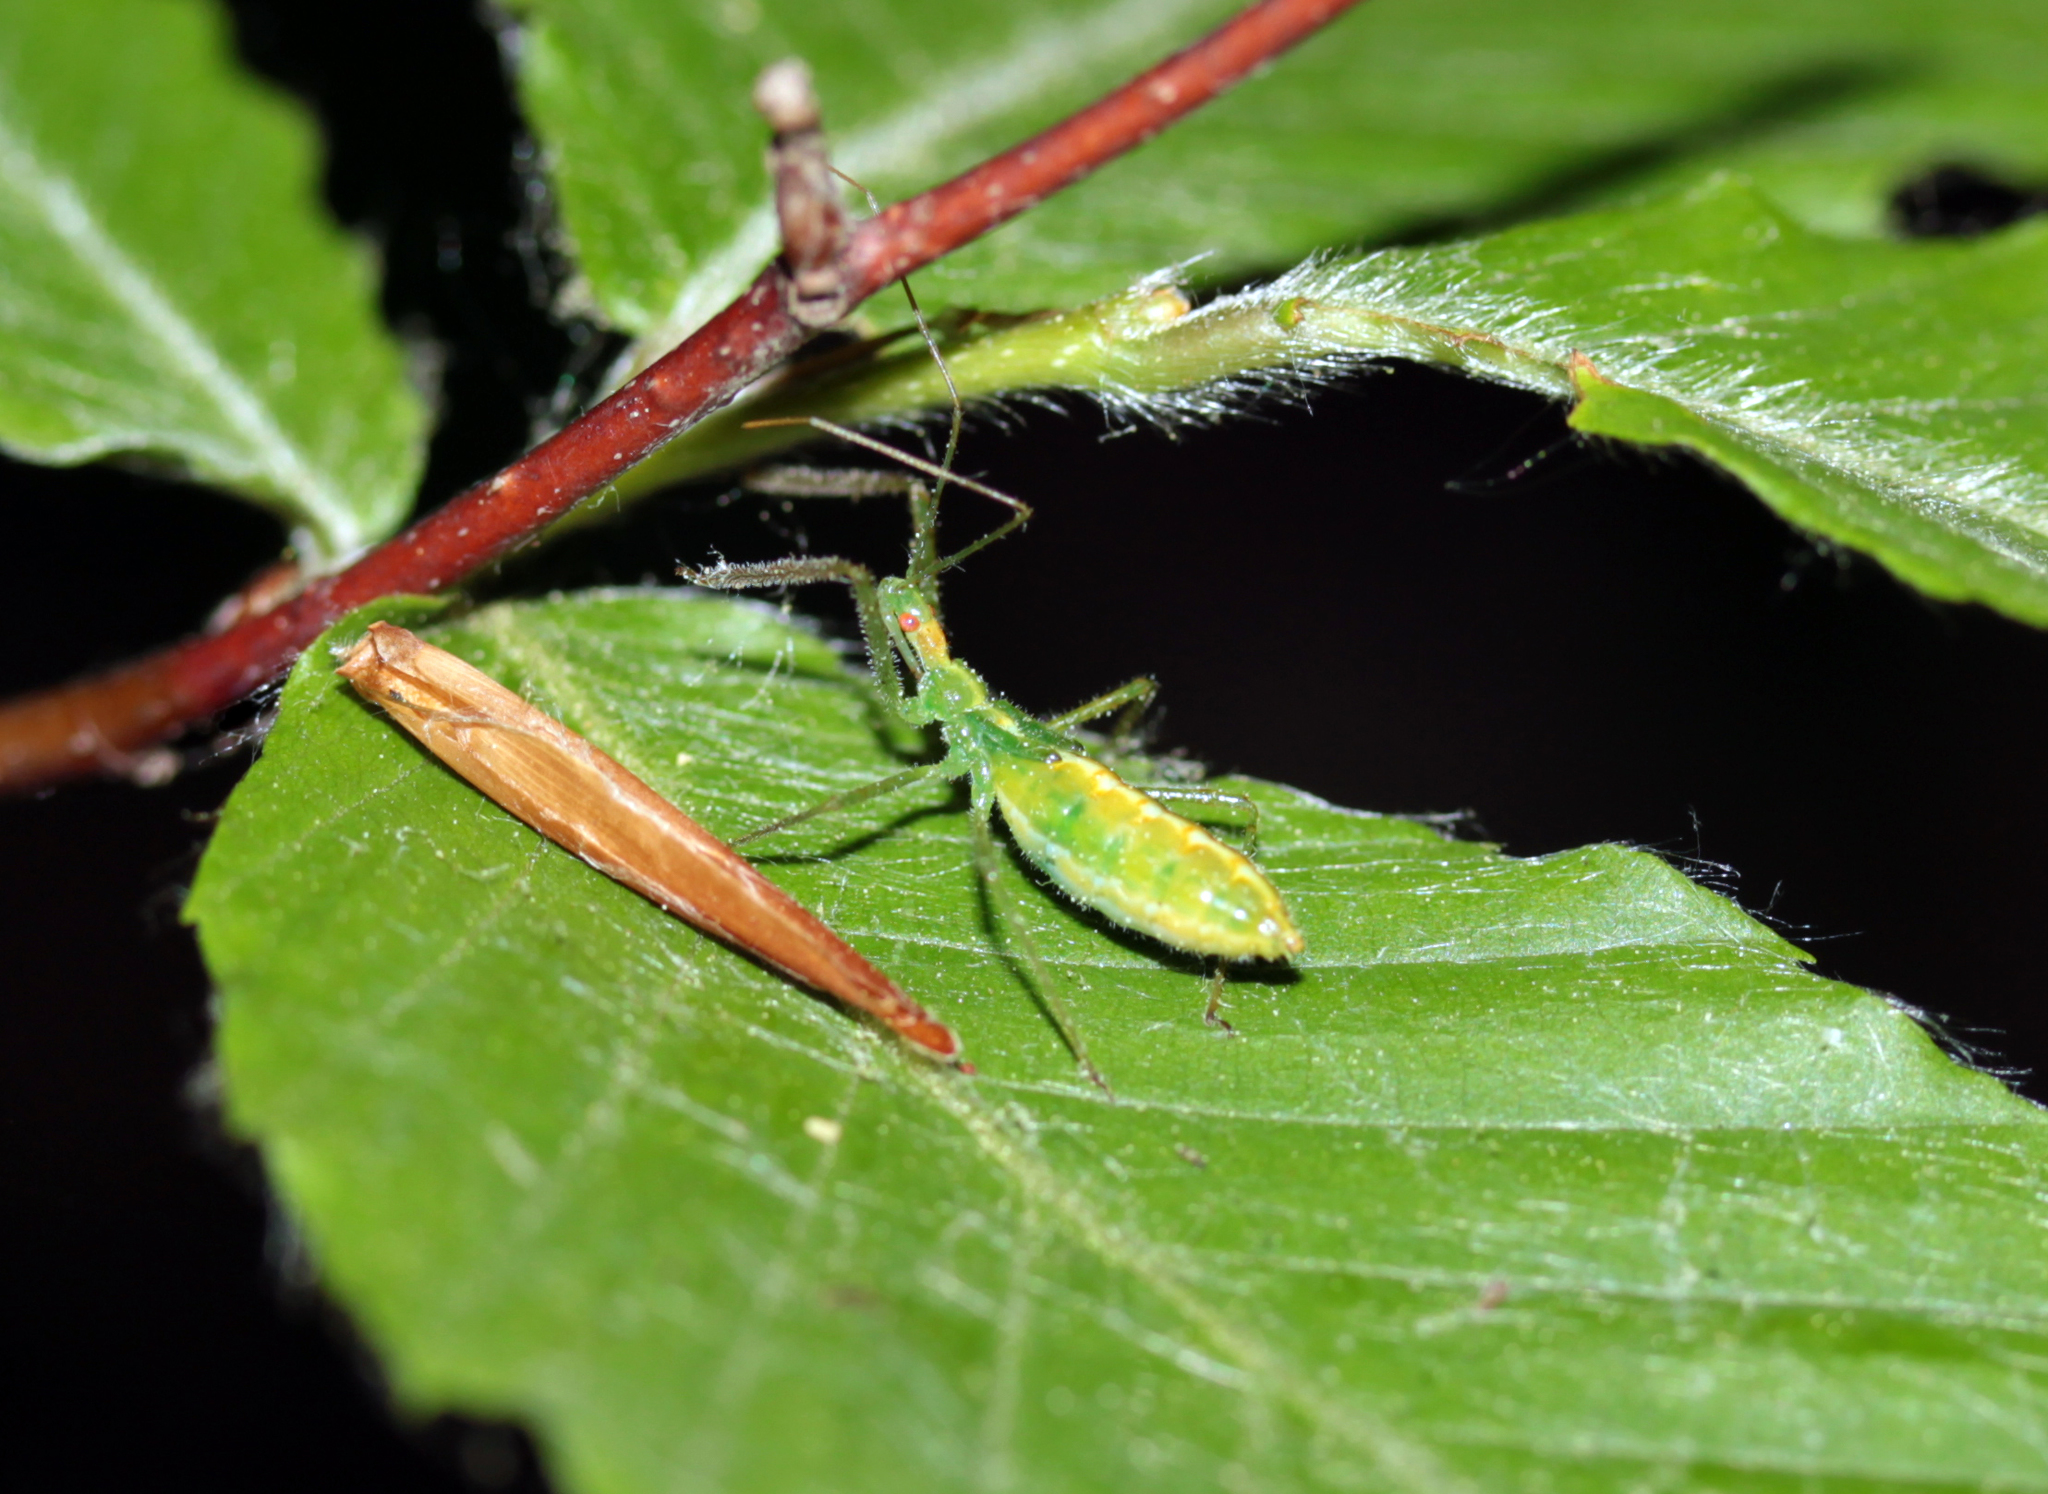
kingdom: Animalia
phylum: Arthropoda
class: Insecta
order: Hemiptera
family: Reduviidae
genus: Zelus
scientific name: Zelus luridus
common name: Pale green assassin bug
